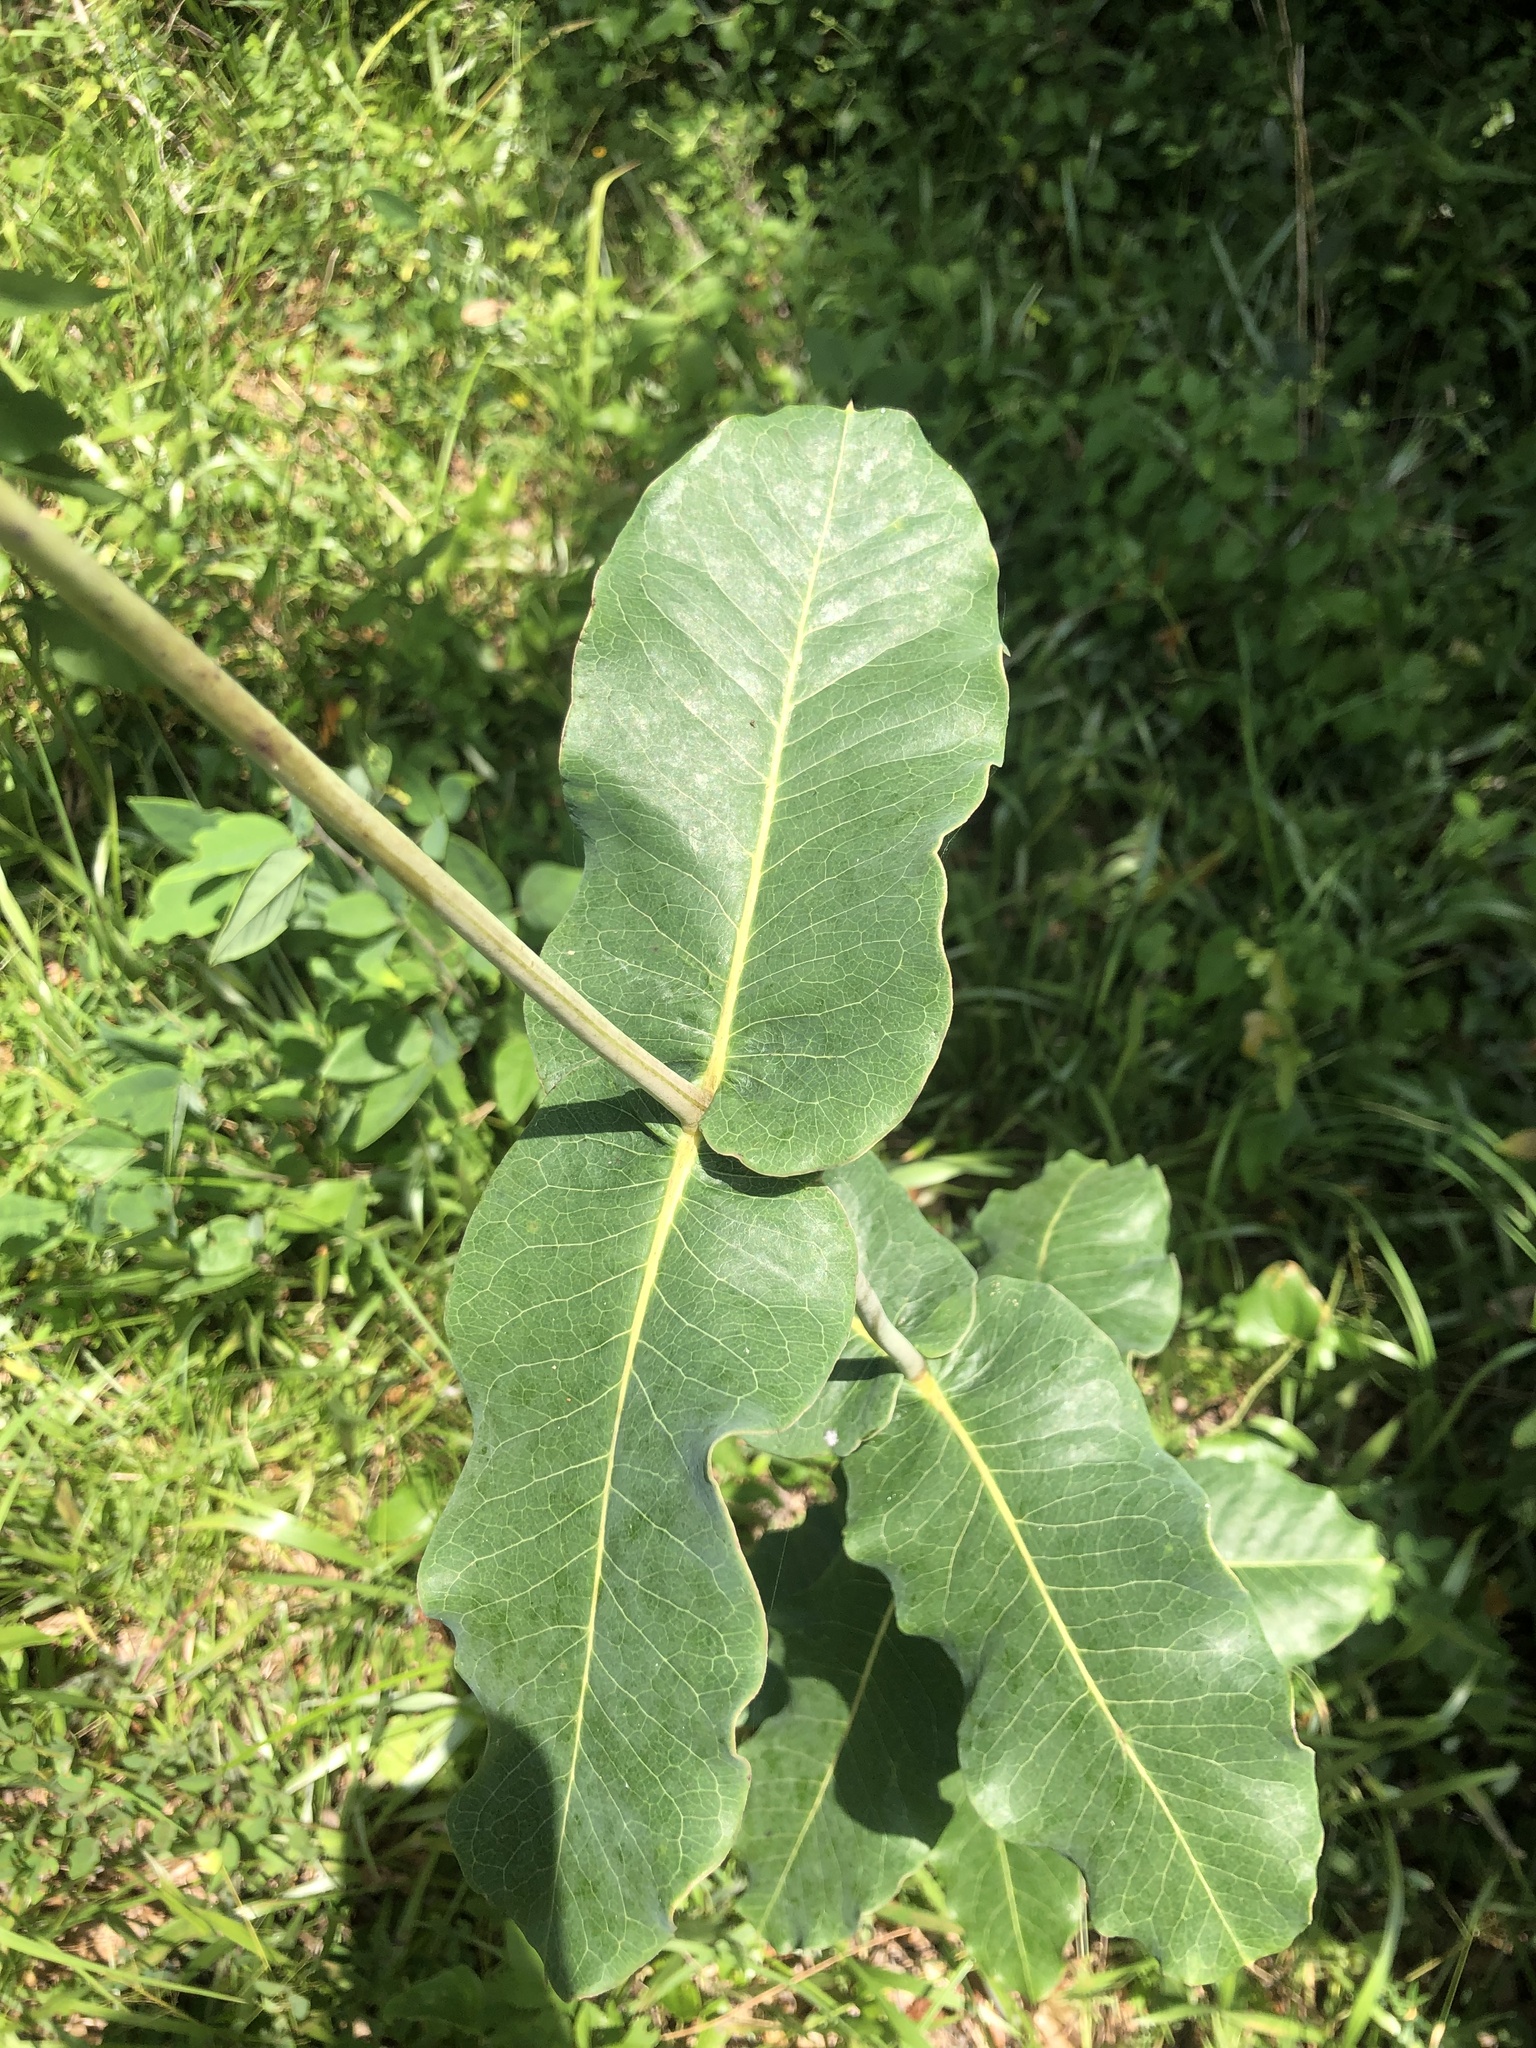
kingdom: Plantae
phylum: Tracheophyta
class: Magnoliopsida
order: Gentianales
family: Apocynaceae
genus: Asclepias
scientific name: Asclepias amplexicaulis
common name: Blunt-leaf milkweed
